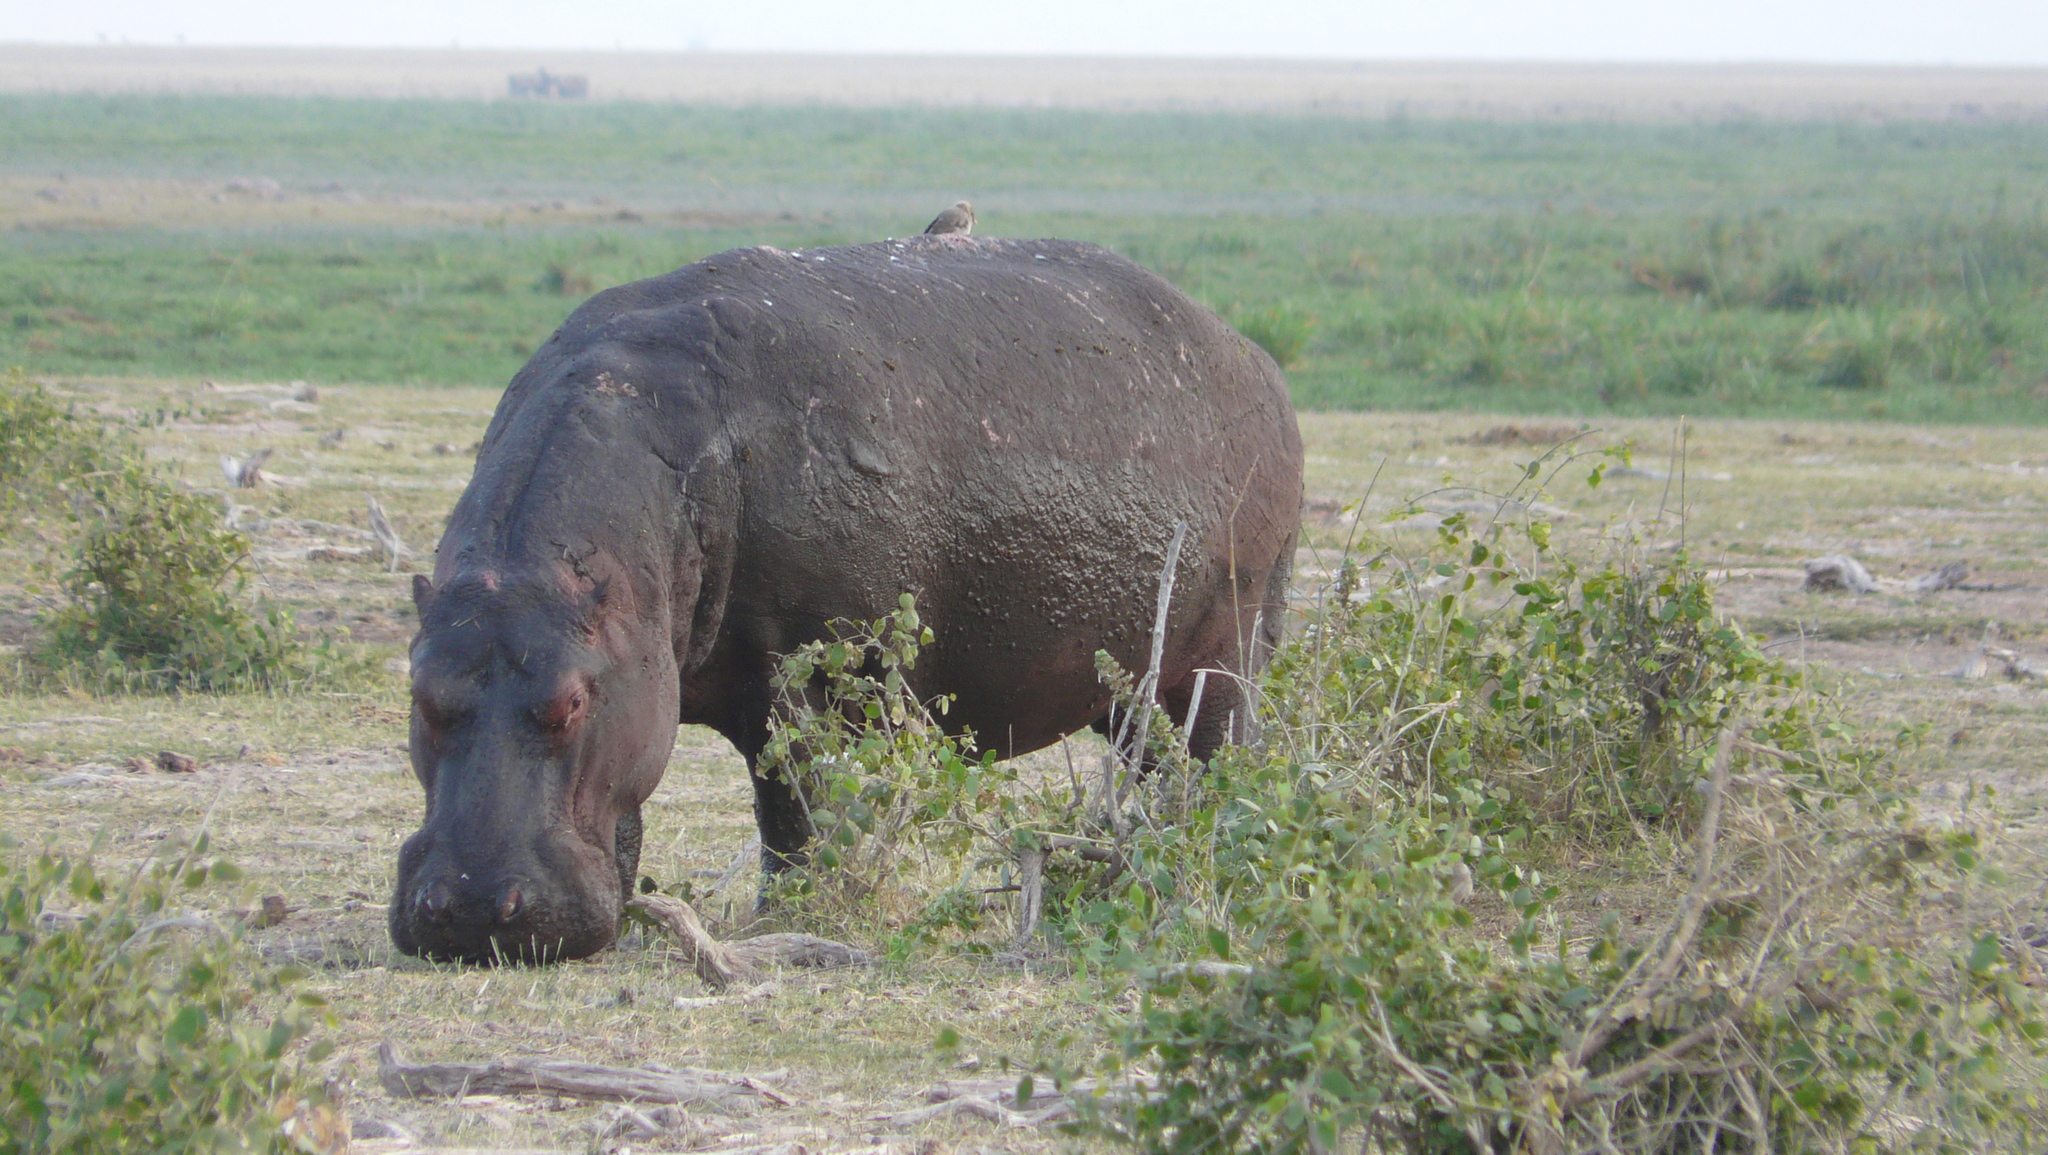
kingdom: Animalia
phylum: Chordata
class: Mammalia
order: Artiodactyla
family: Hippopotamidae
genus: Hippopotamus
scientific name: Hippopotamus amphibius
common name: Common hippopotamus
